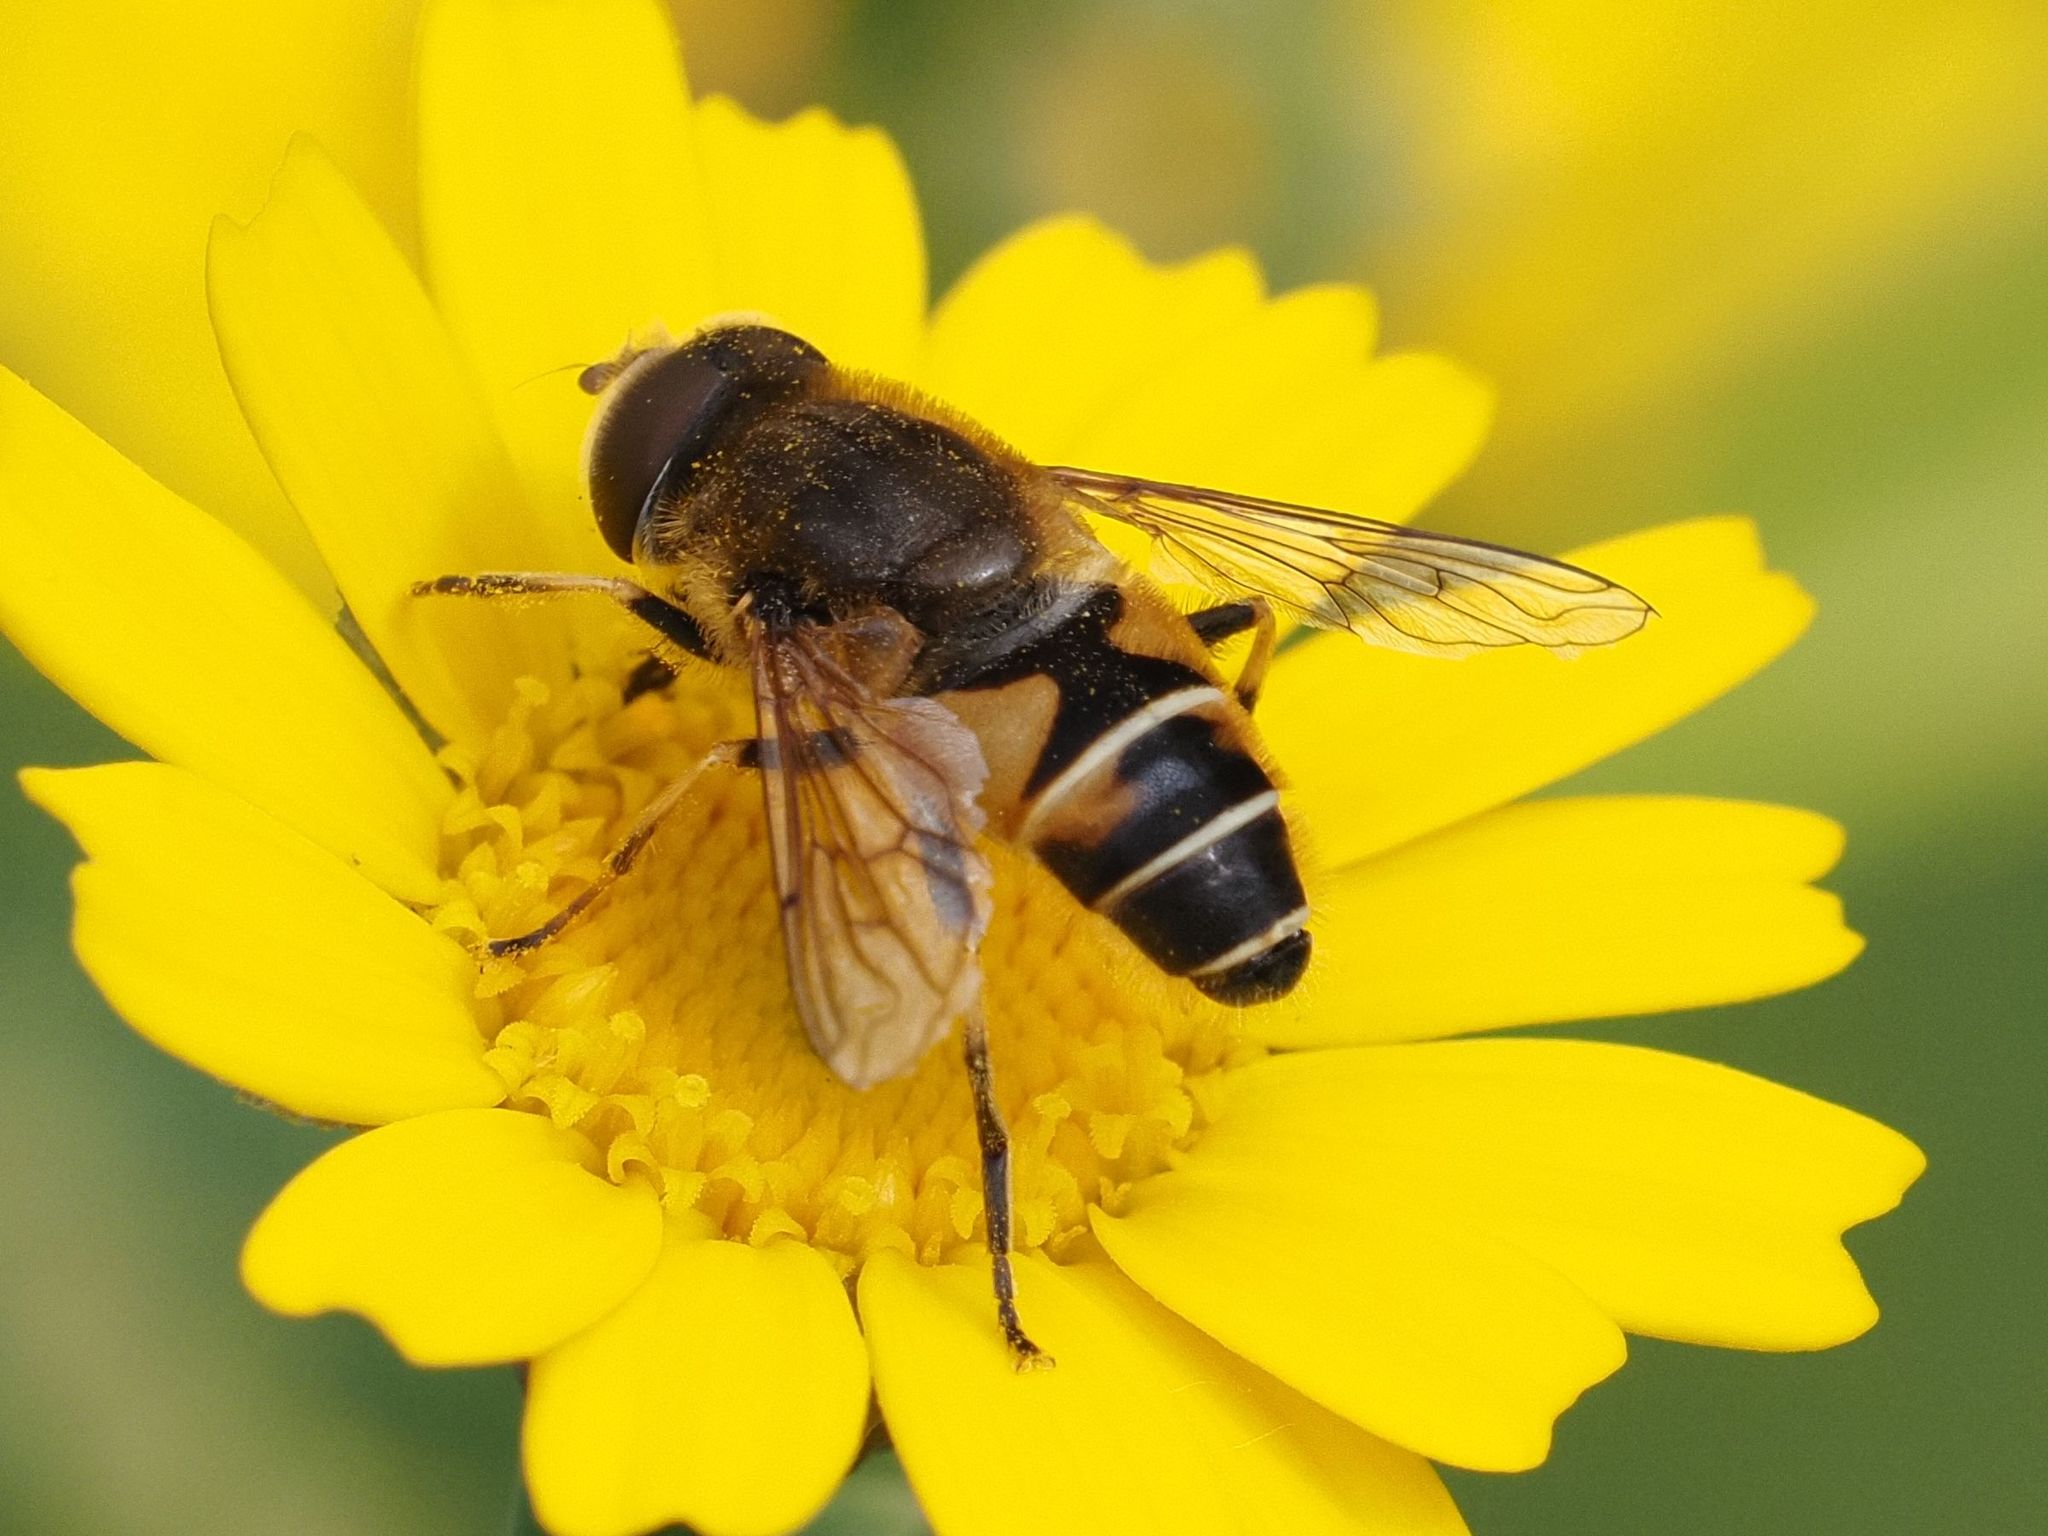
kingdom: Animalia
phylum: Arthropoda
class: Insecta
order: Diptera
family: Syrphidae
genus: Eristalis
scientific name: Eristalis nemorum
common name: Orange-spined drone fly
